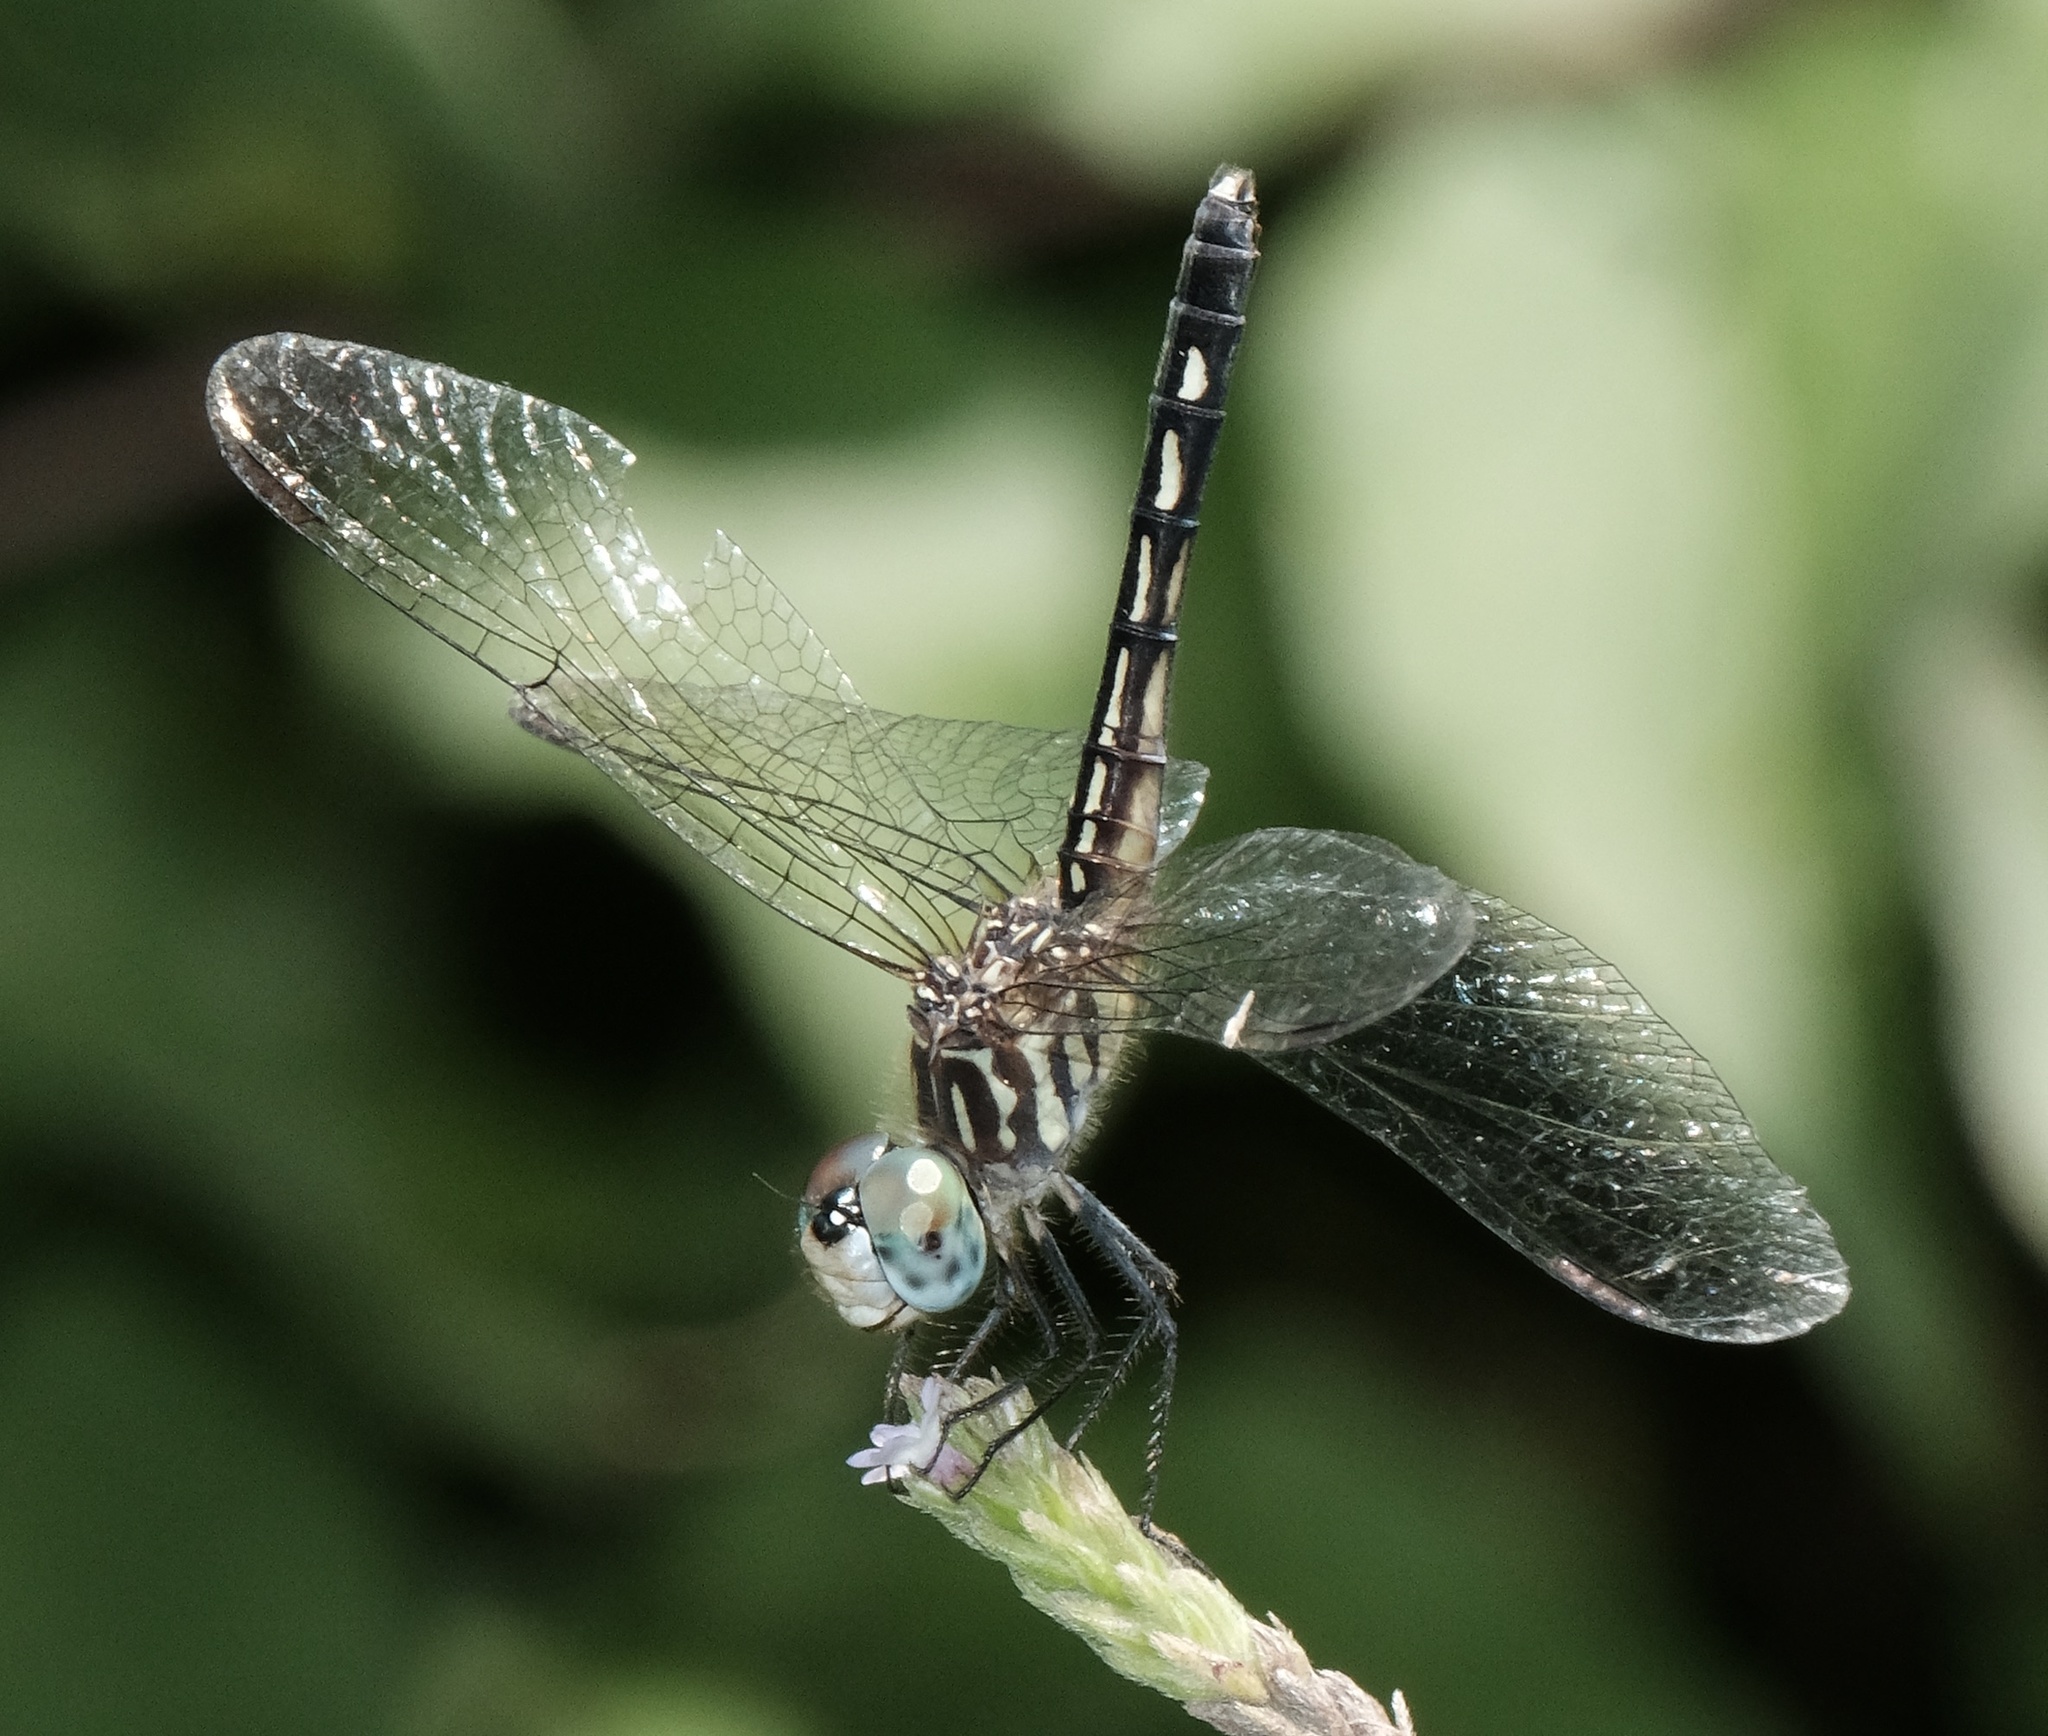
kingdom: Animalia
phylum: Arthropoda
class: Insecta
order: Odonata
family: Libellulidae
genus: Pachydiplax
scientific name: Pachydiplax longipennis
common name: Blue dasher
